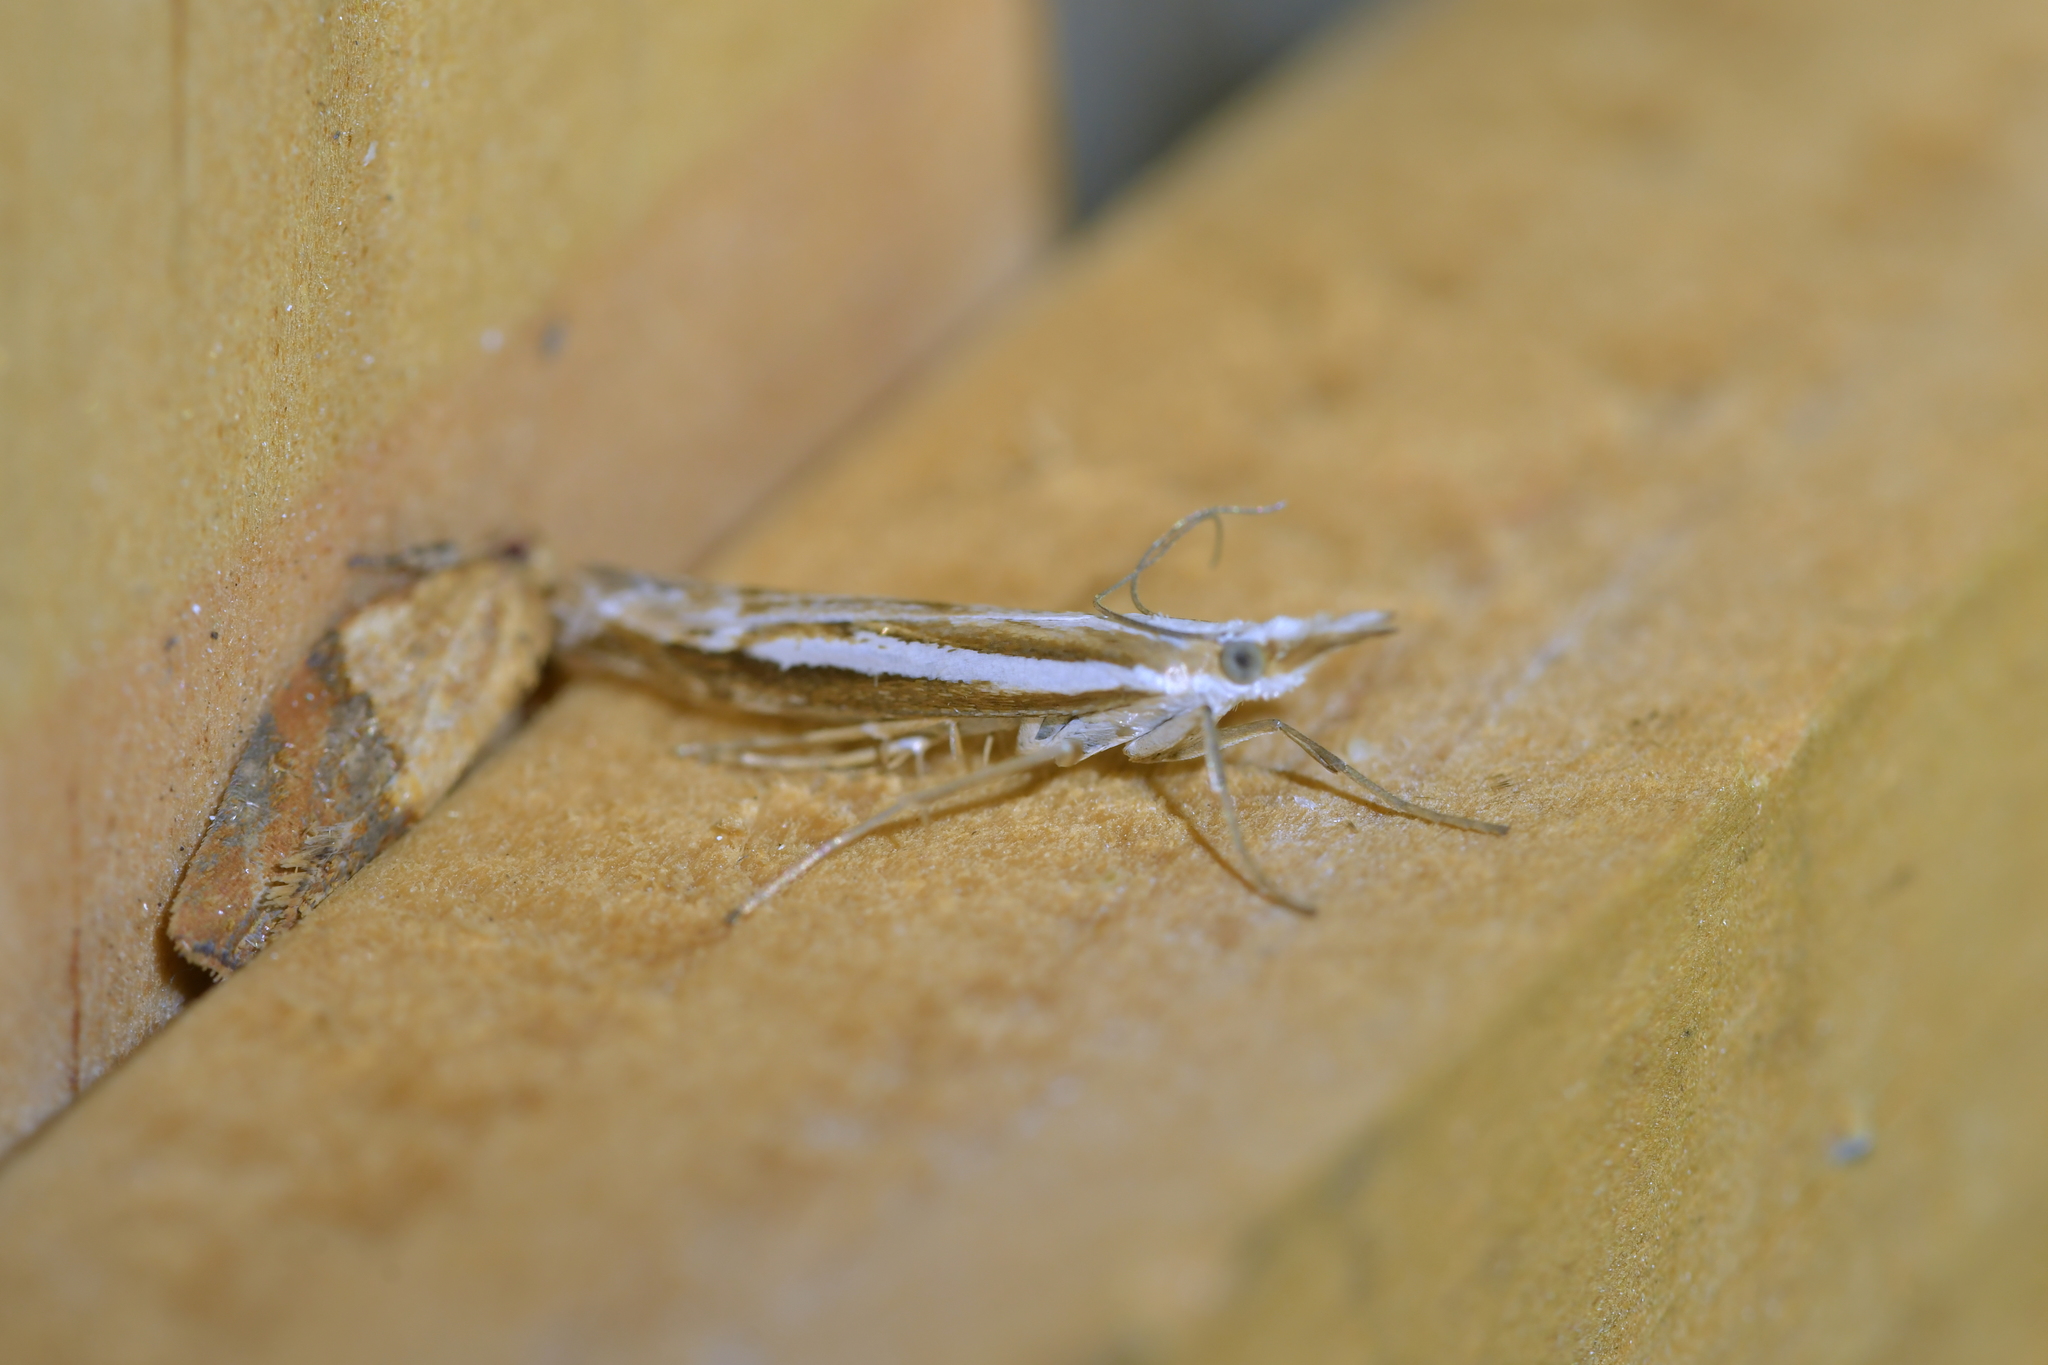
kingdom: Animalia
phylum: Arthropoda
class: Insecta
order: Lepidoptera
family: Crambidae
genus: Orocrambus
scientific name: Orocrambus vittellus
